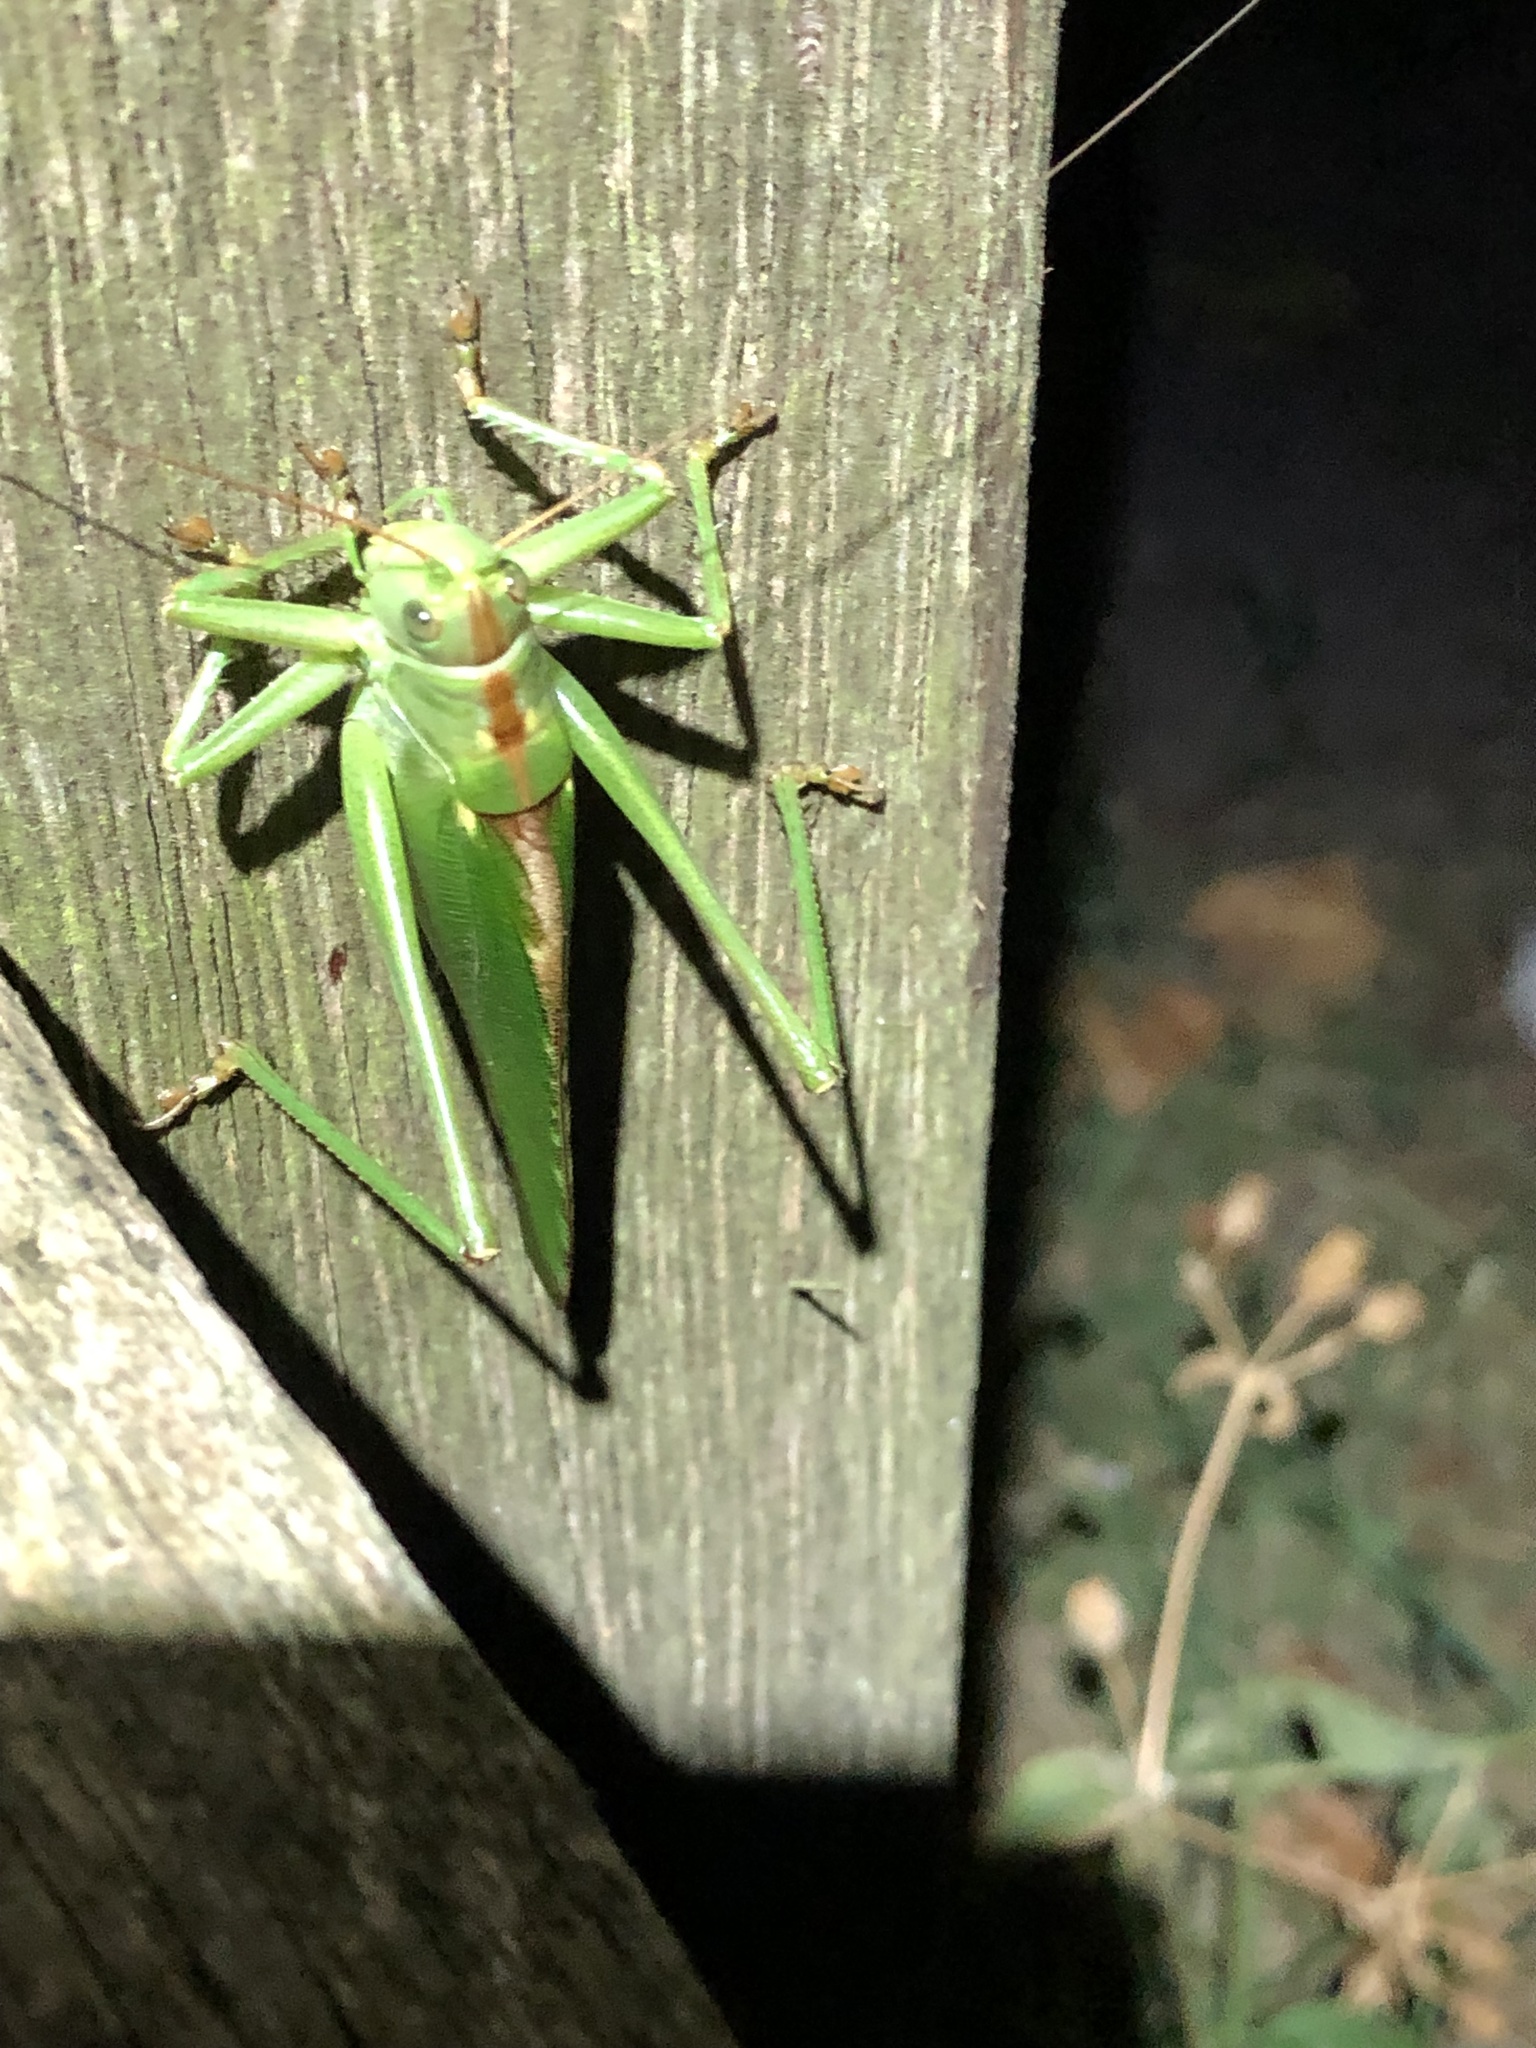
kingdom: Animalia
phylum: Arthropoda
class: Insecta
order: Orthoptera
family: Tettigoniidae
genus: Tettigonia
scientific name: Tettigonia viridissima
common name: Great green bush-cricket
